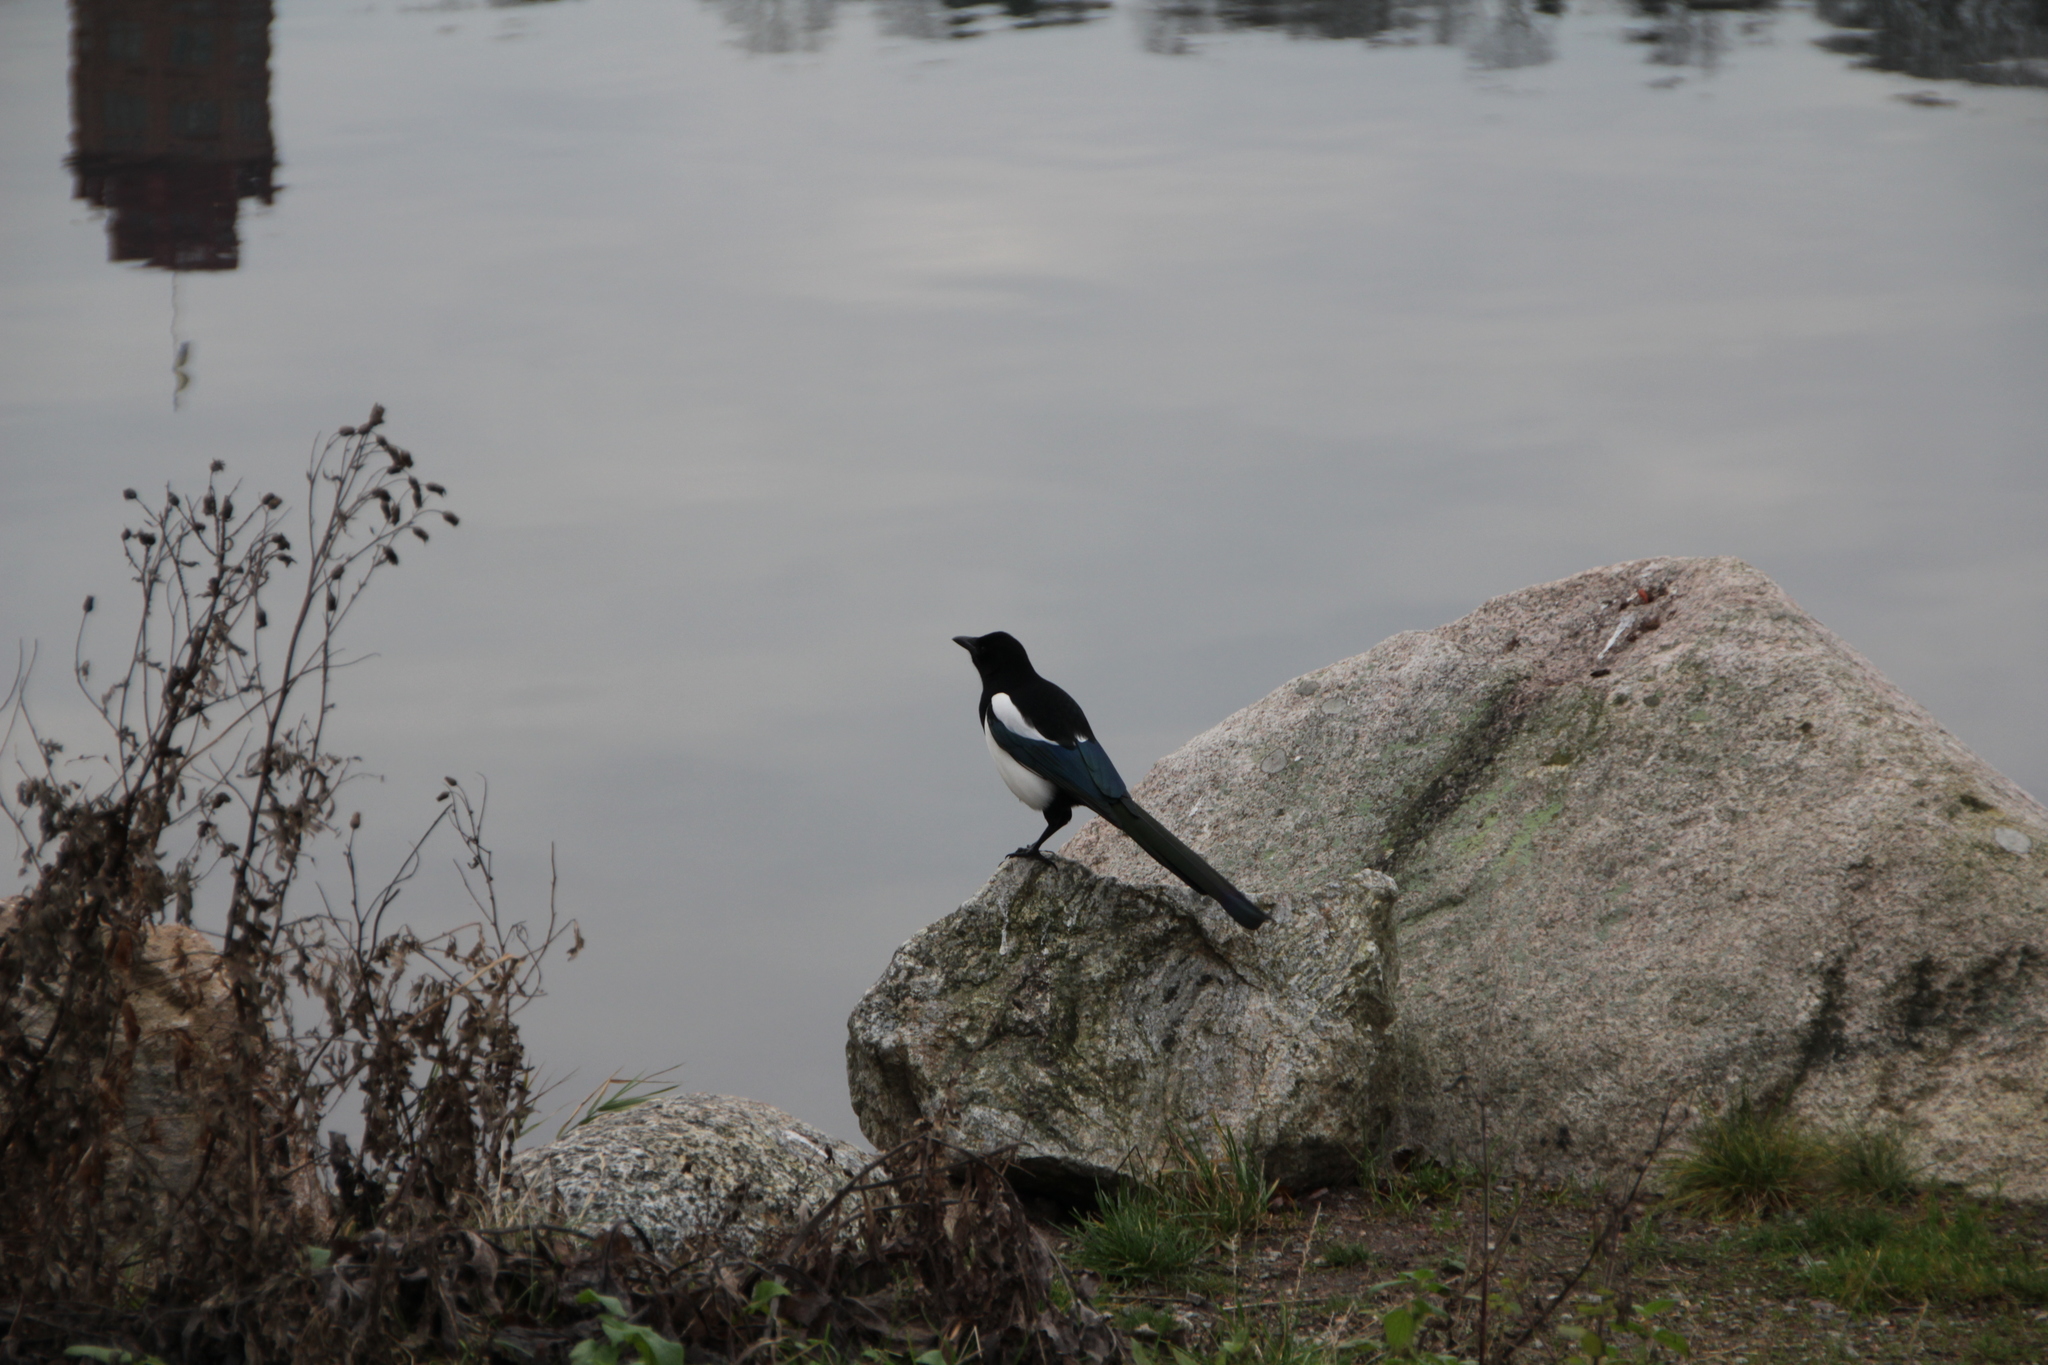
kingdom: Animalia
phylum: Chordata
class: Aves
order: Passeriformes
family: Corvidae
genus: Pica
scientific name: Pica pica
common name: Eurasian magpie
